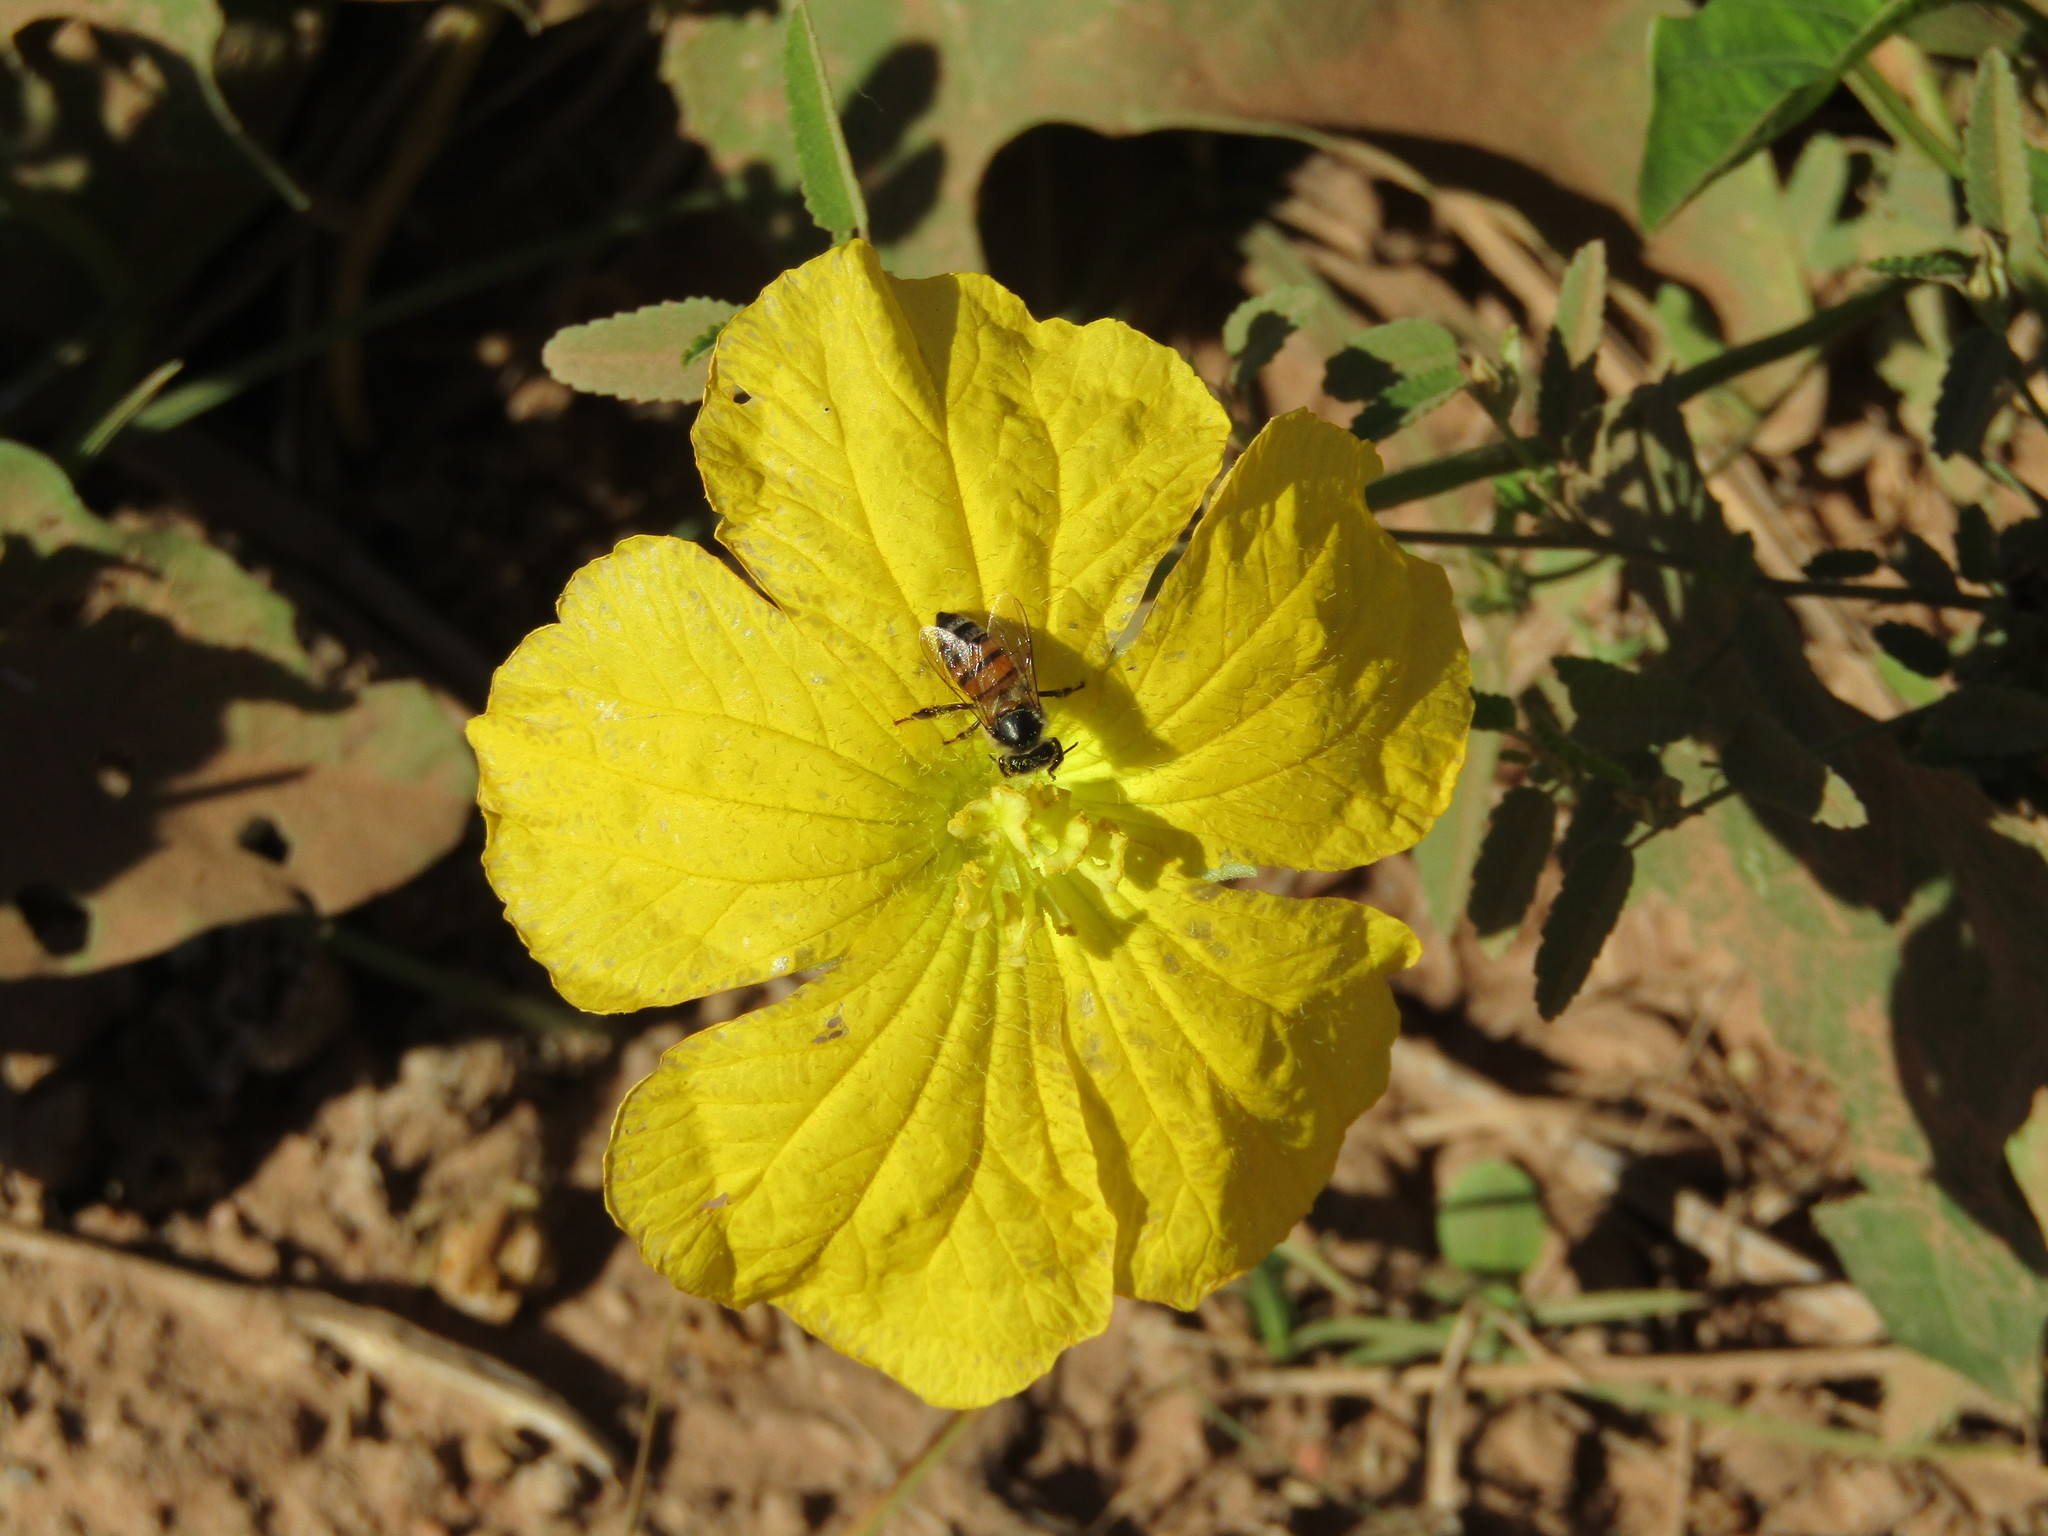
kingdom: Animalia
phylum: Arthropoda
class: Insecta
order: Hymenoptera
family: Apidae
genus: Apis
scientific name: Apis mellifera
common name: Honey bee
